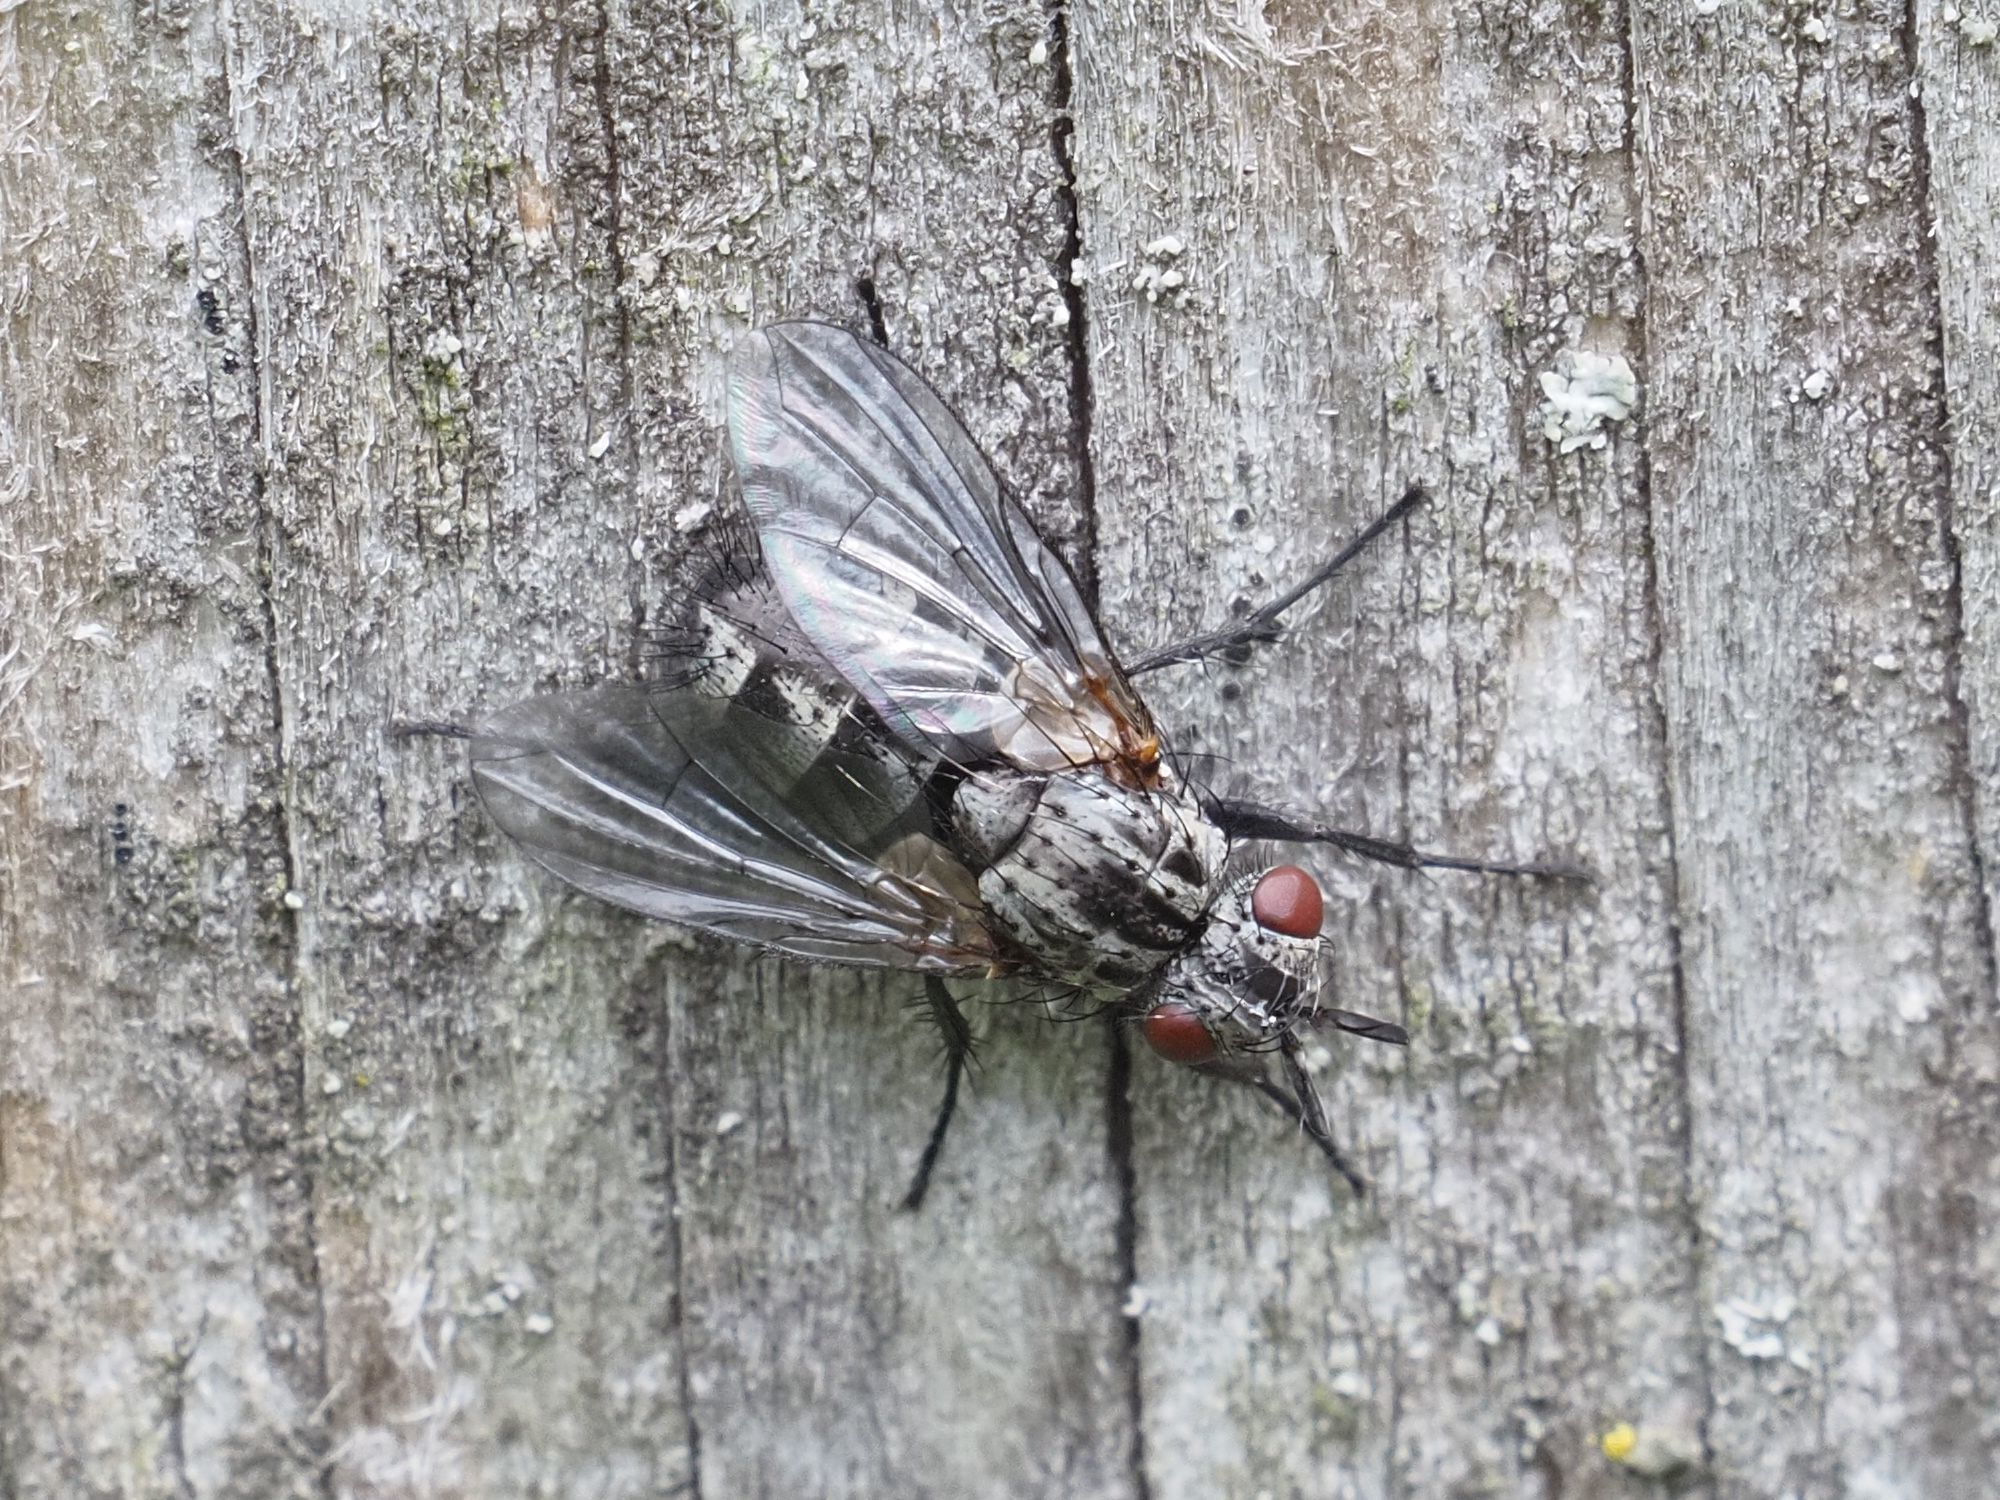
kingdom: Animalia
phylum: Arthropoda
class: Insecta
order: Diptera
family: Tachinidae
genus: Triarthria
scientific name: Triarthria setipennis
